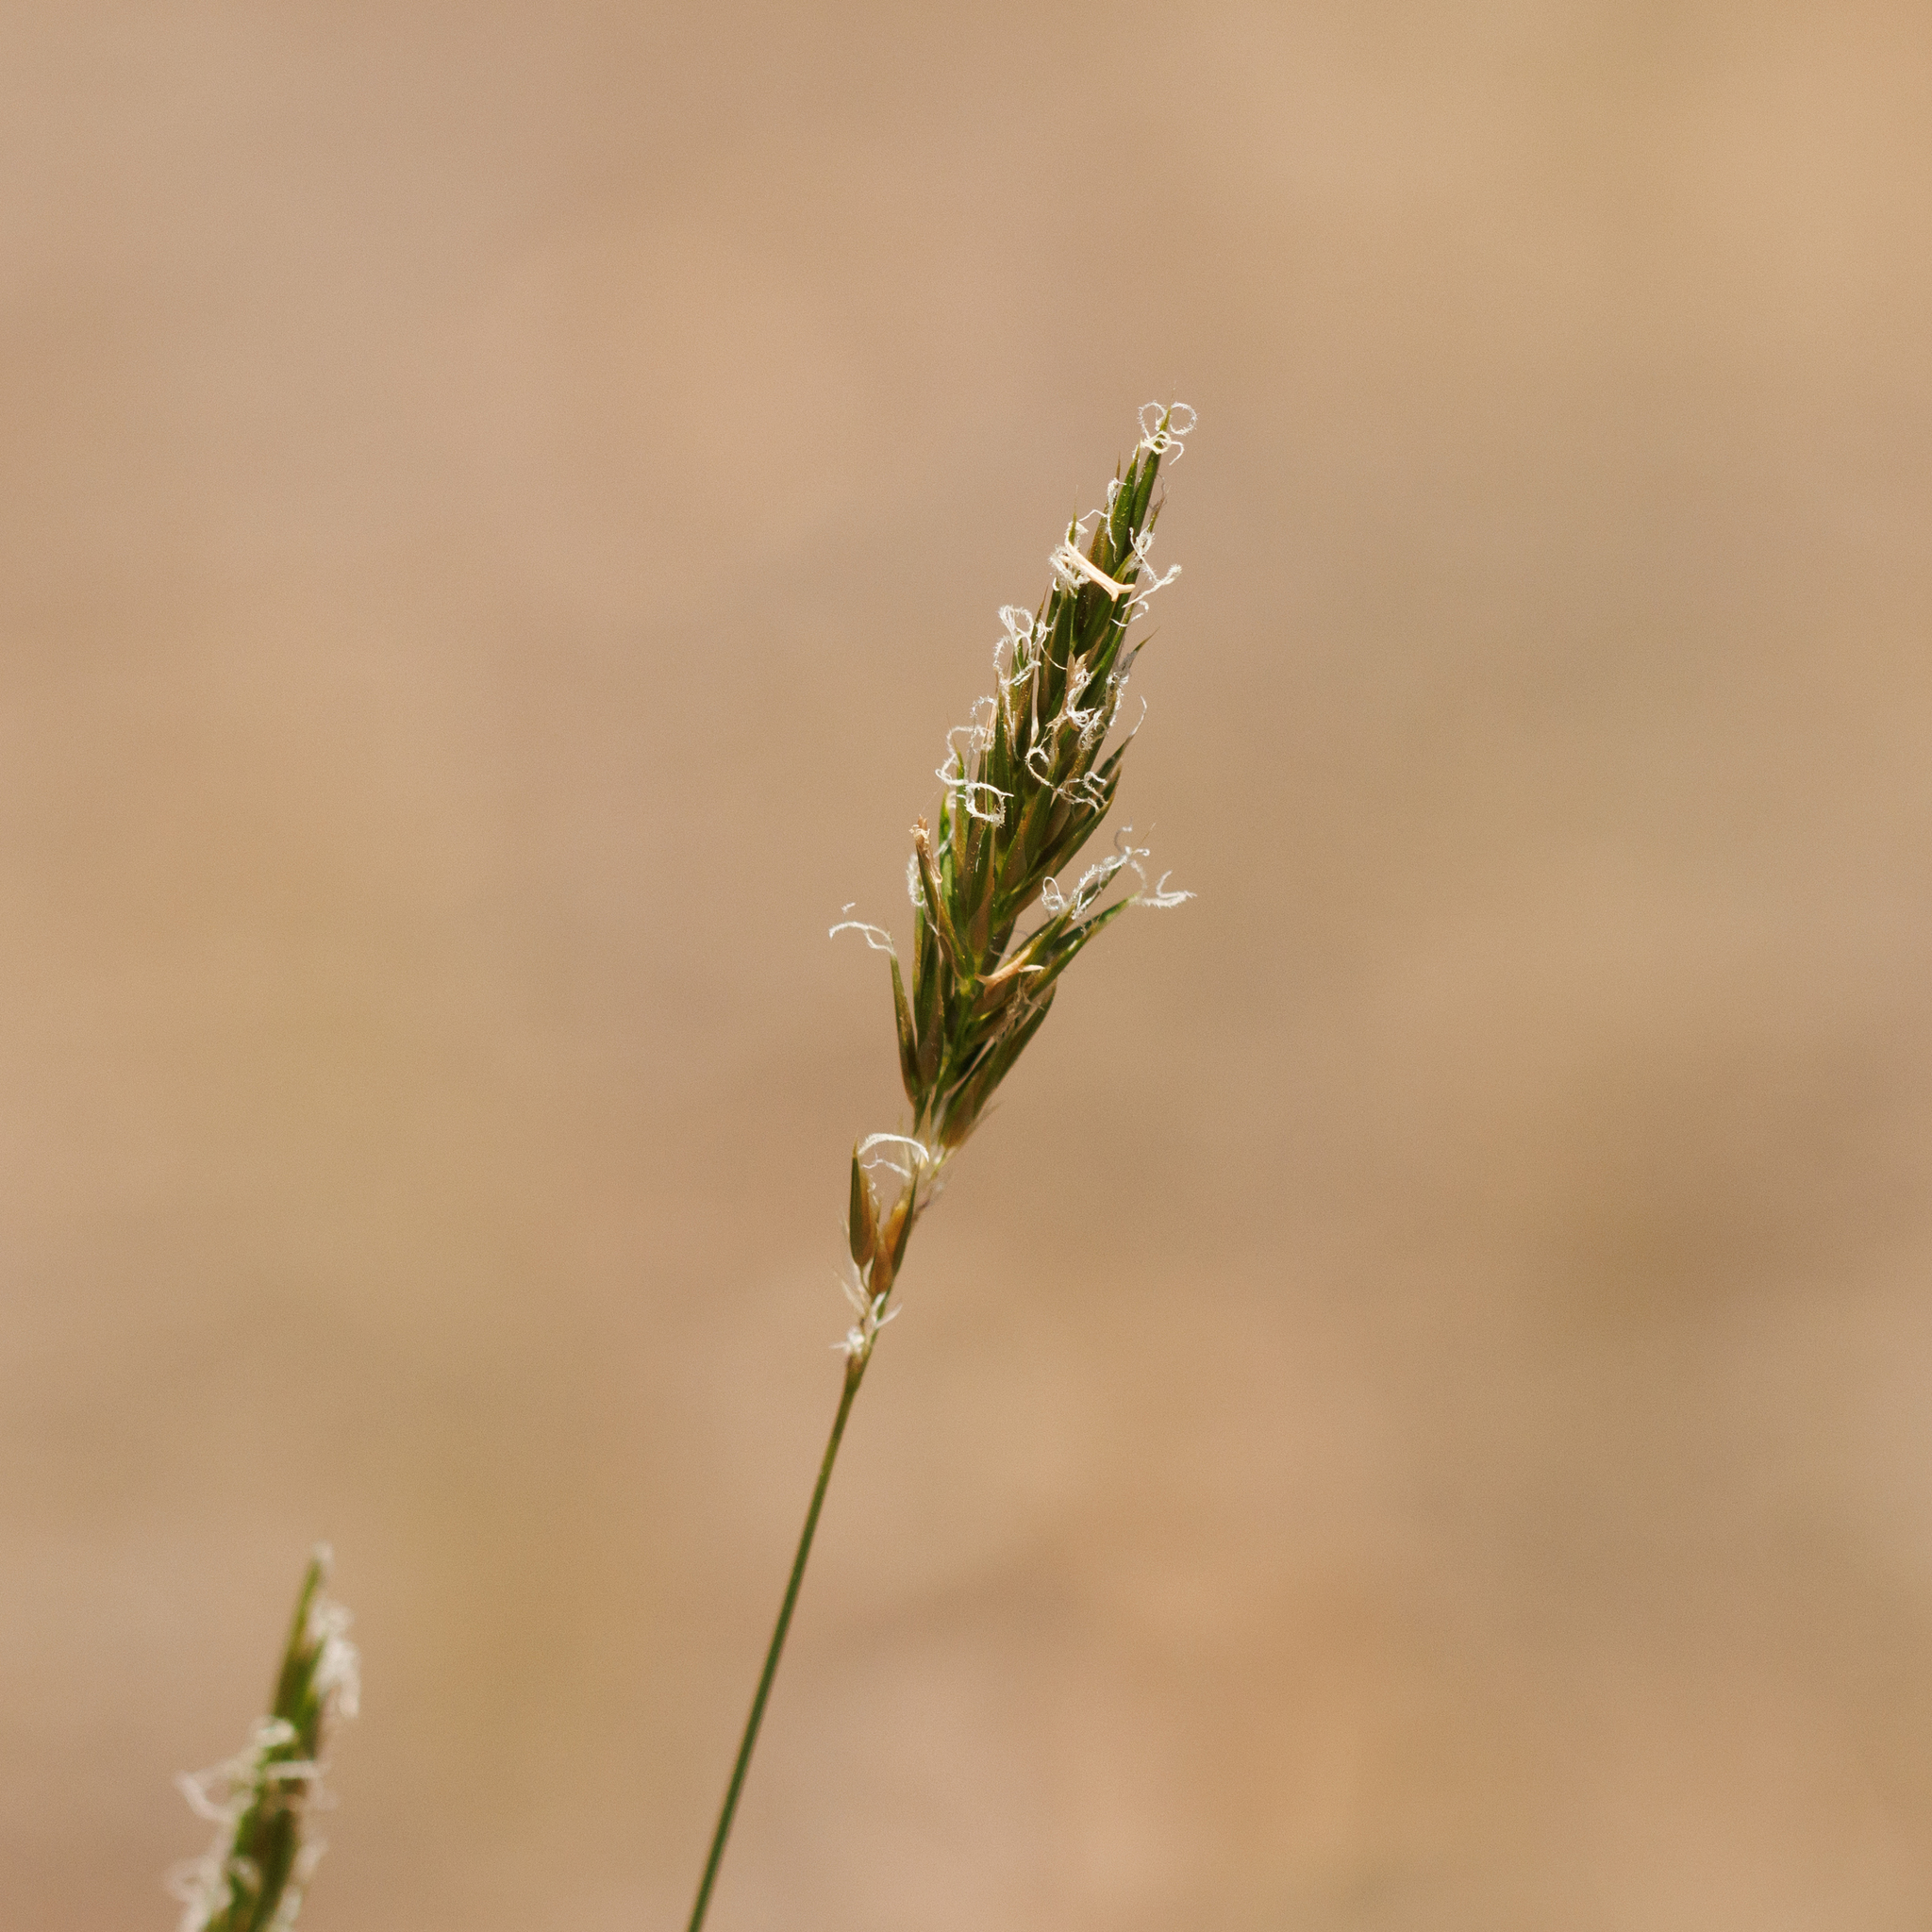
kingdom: Plantae
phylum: Tracheophyta
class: Liliopsida
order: Poales
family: Poaceae
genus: Anthoxanthum
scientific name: Anthoxanthum odoratum
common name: Sweet vernalgrass
